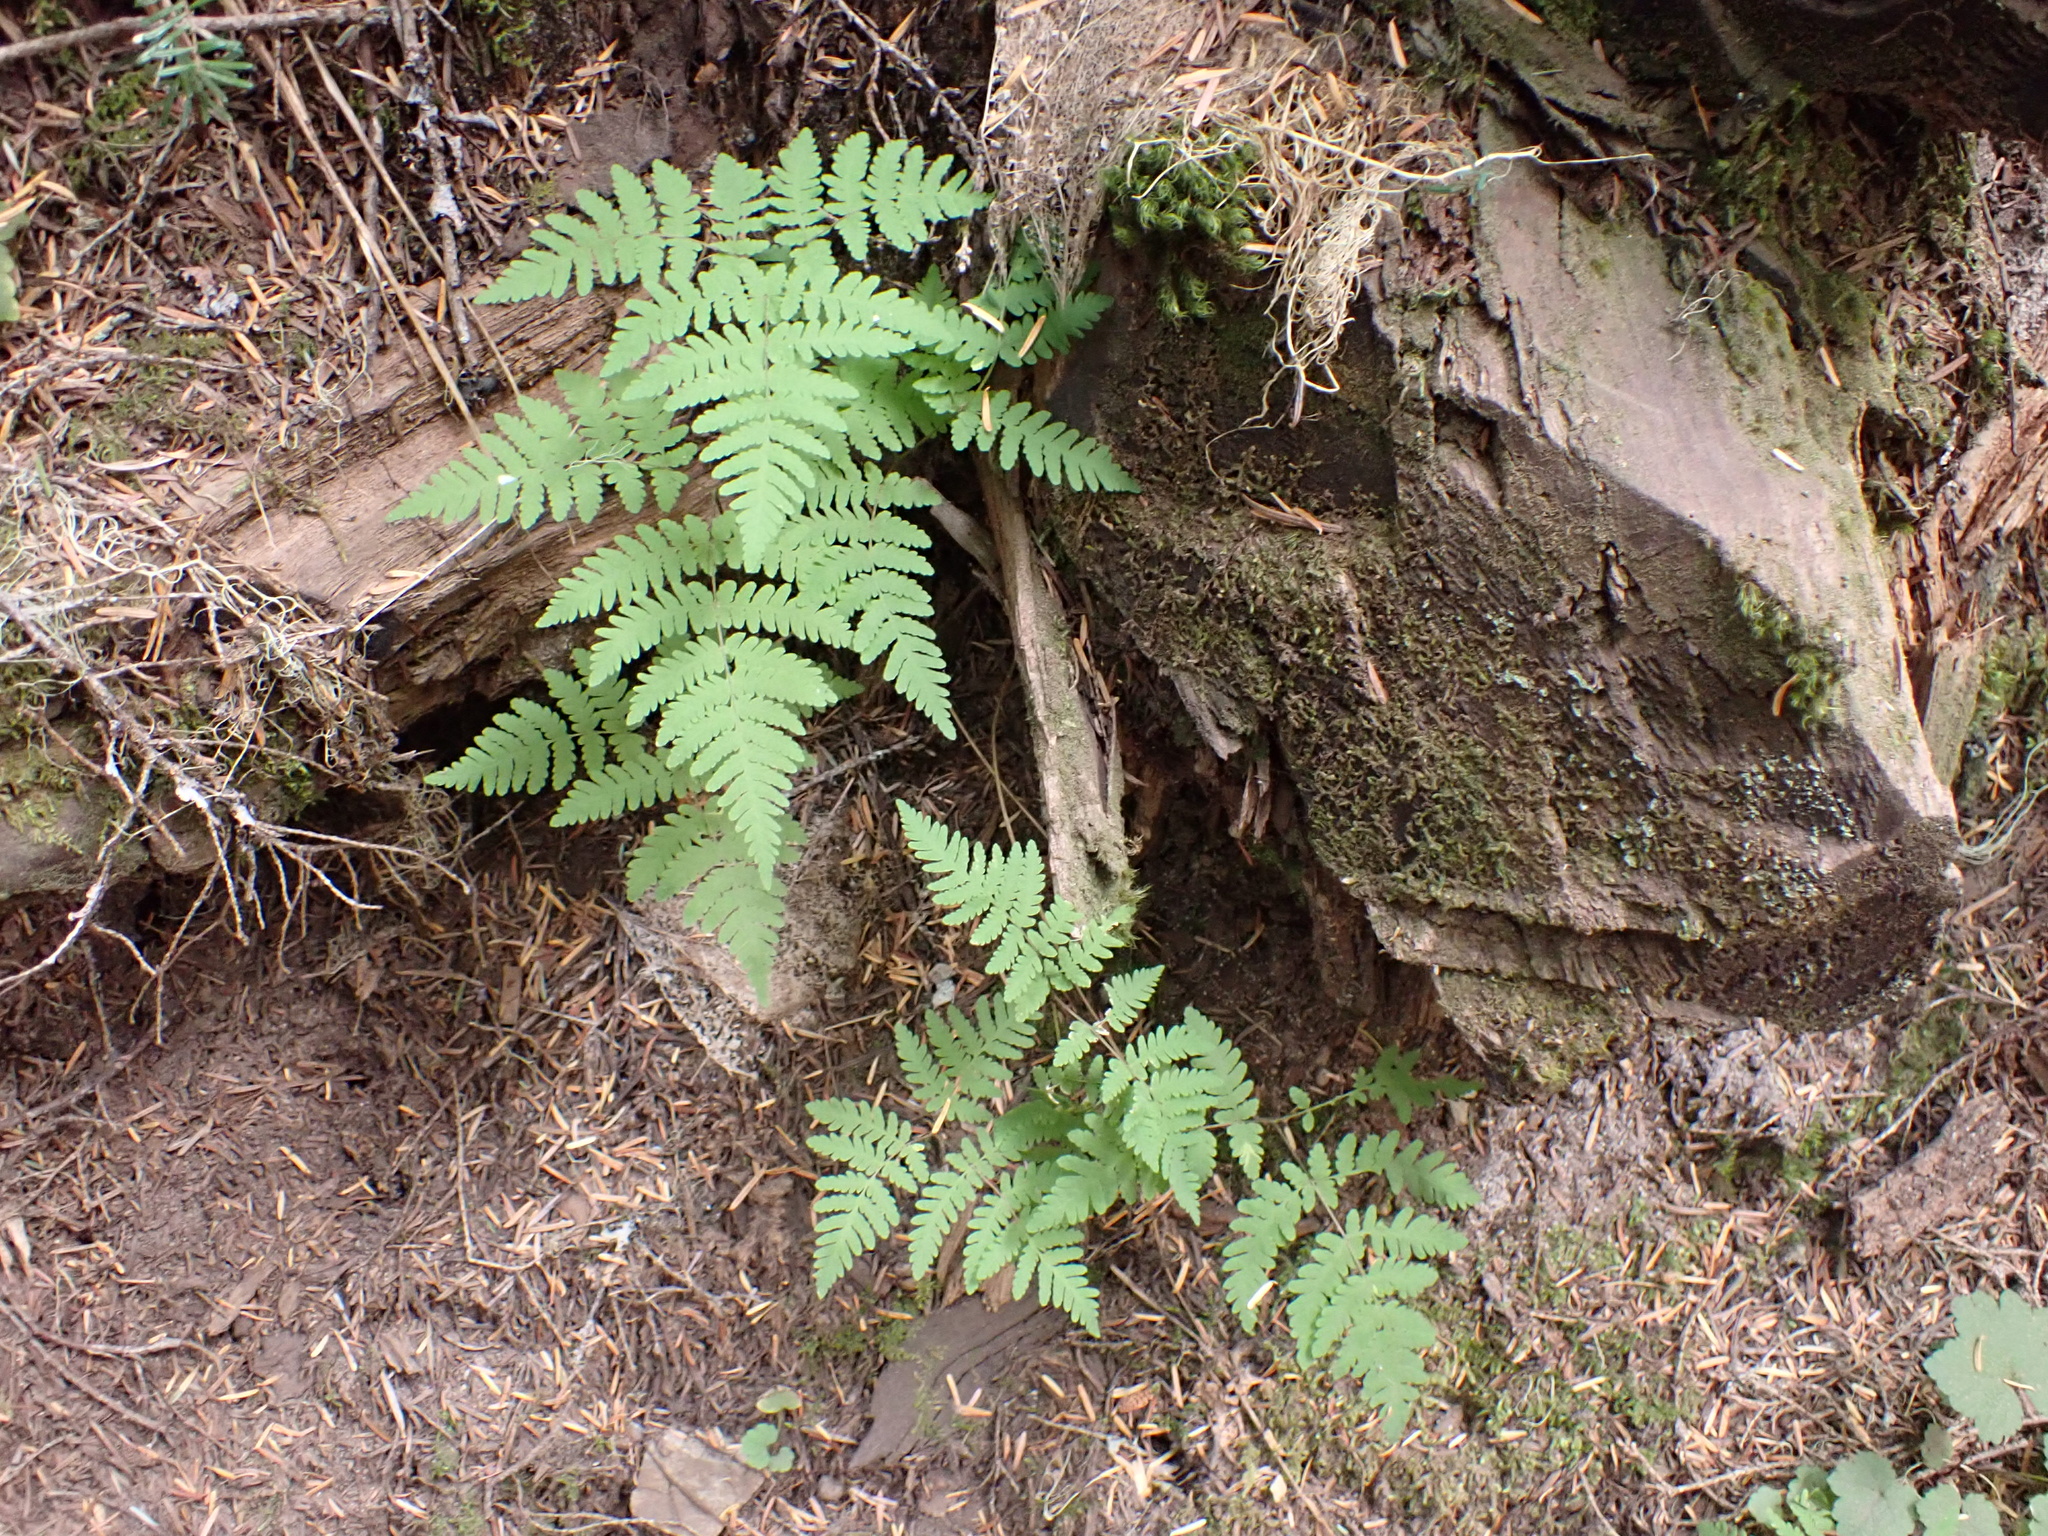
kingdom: Plantae
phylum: Tracheophyta
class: Polypodiopsida
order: Polypodiales
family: Cystopteridaceae
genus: Gymnocarpium
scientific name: Gymnocarpium dryopteris
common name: Oak fern
